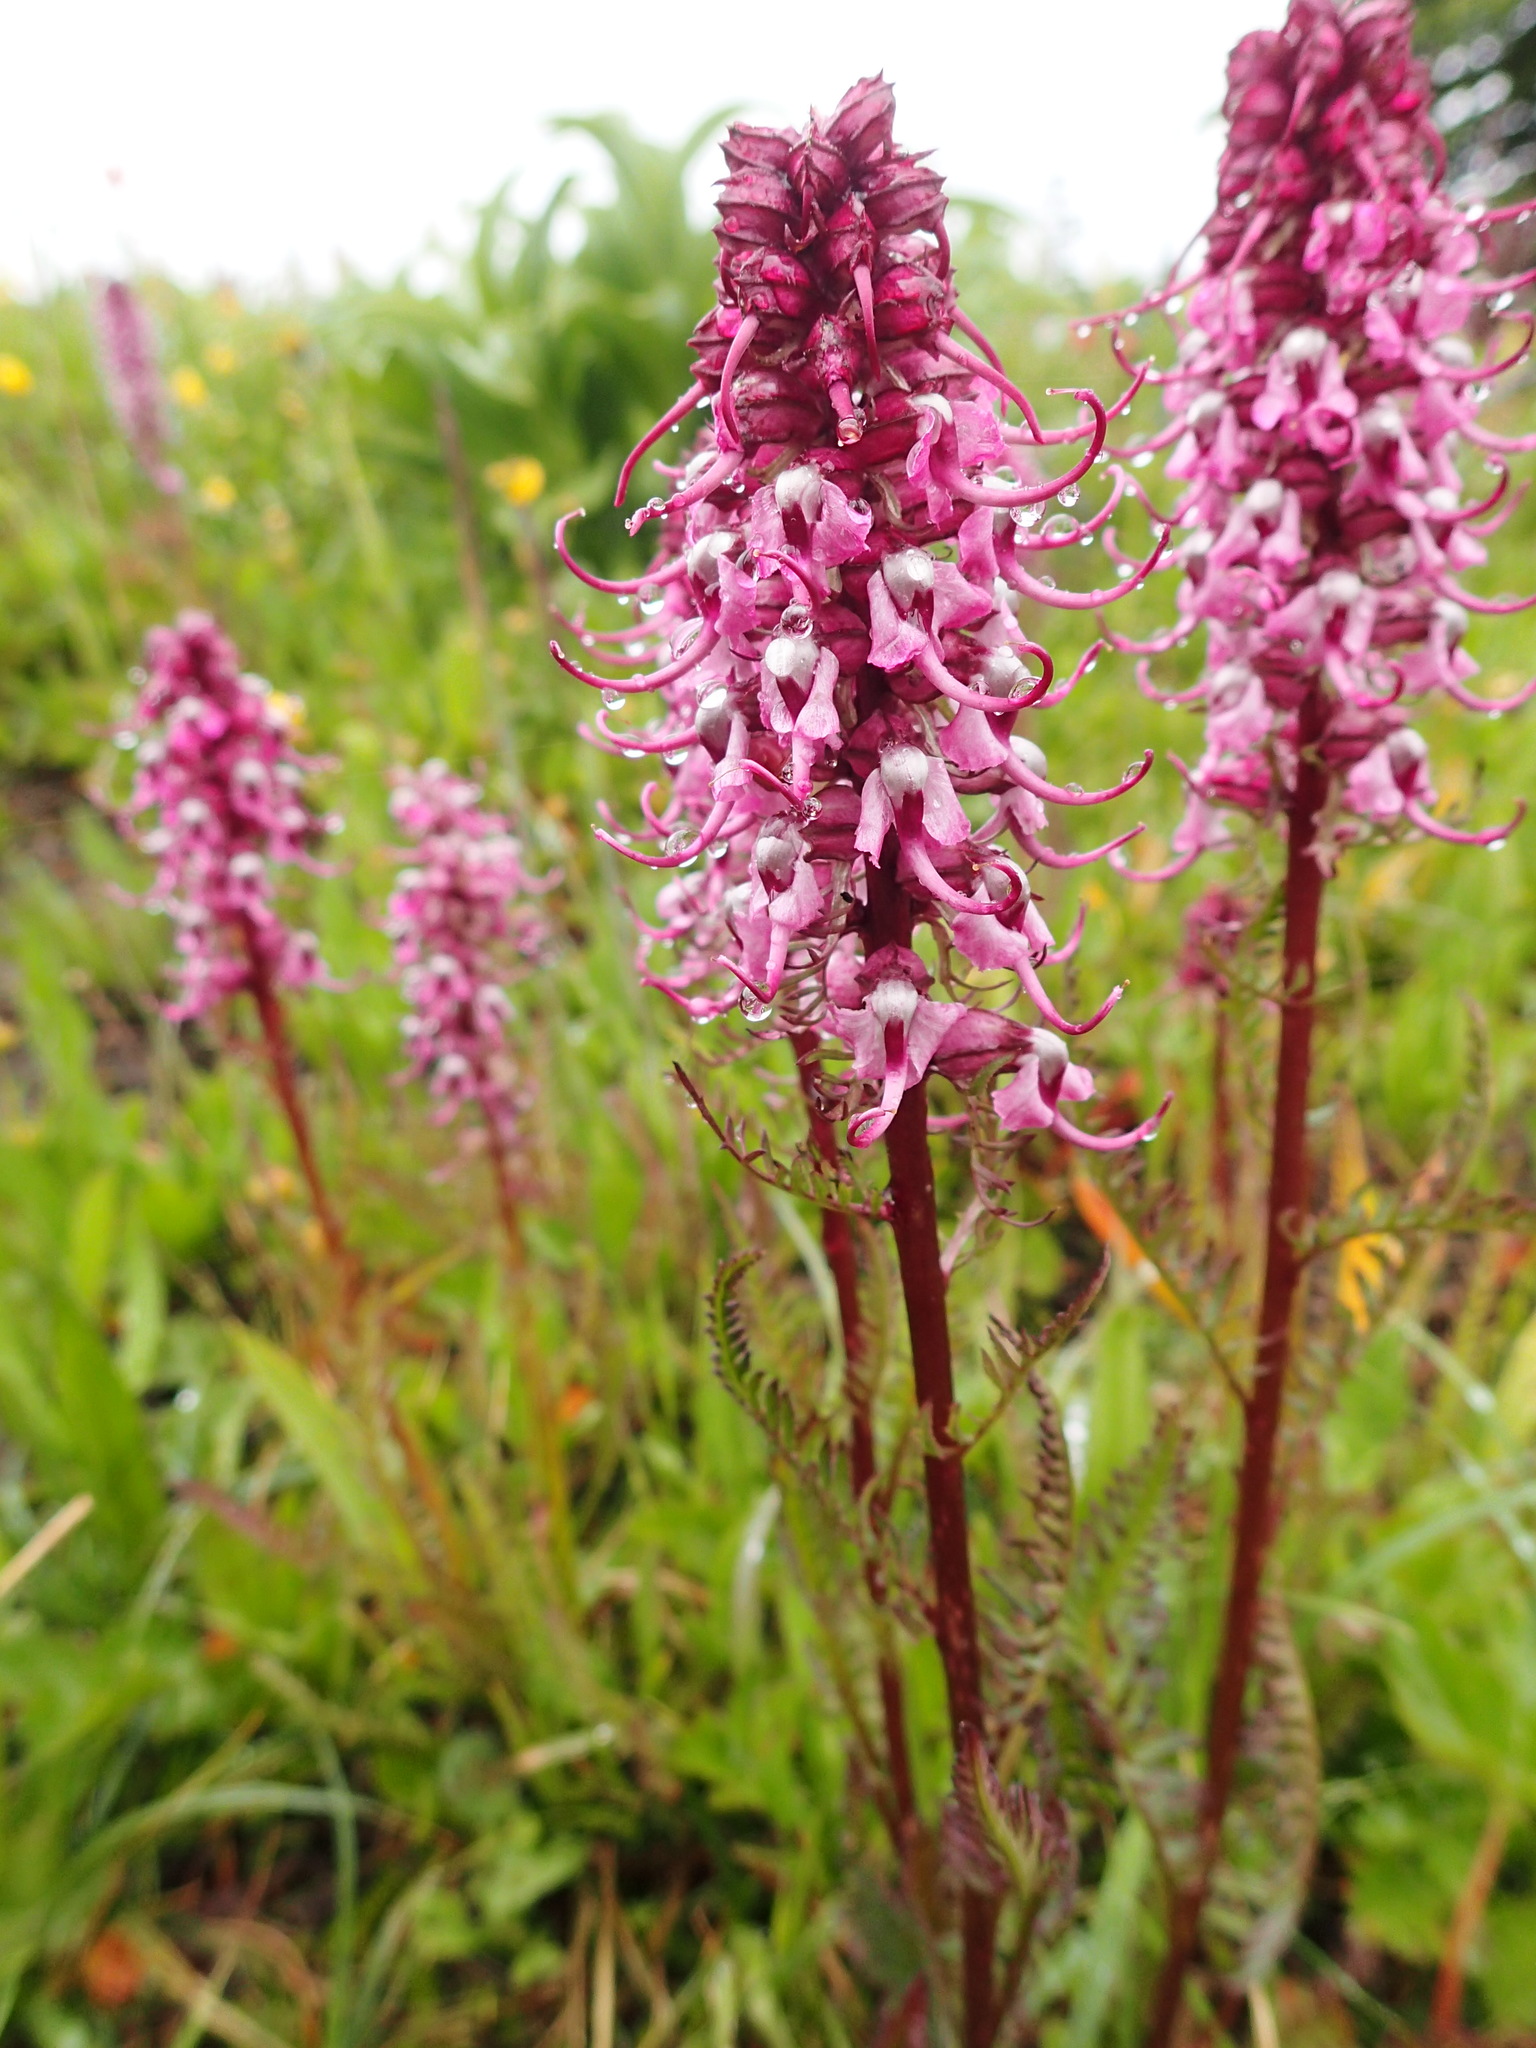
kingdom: Plantae
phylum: Tracheophyta
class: Magnoliopsida
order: Lamiales
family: Orobanchaceae
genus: Pedicularis
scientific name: Pedicularis groenlandica
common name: Elephant's-head
